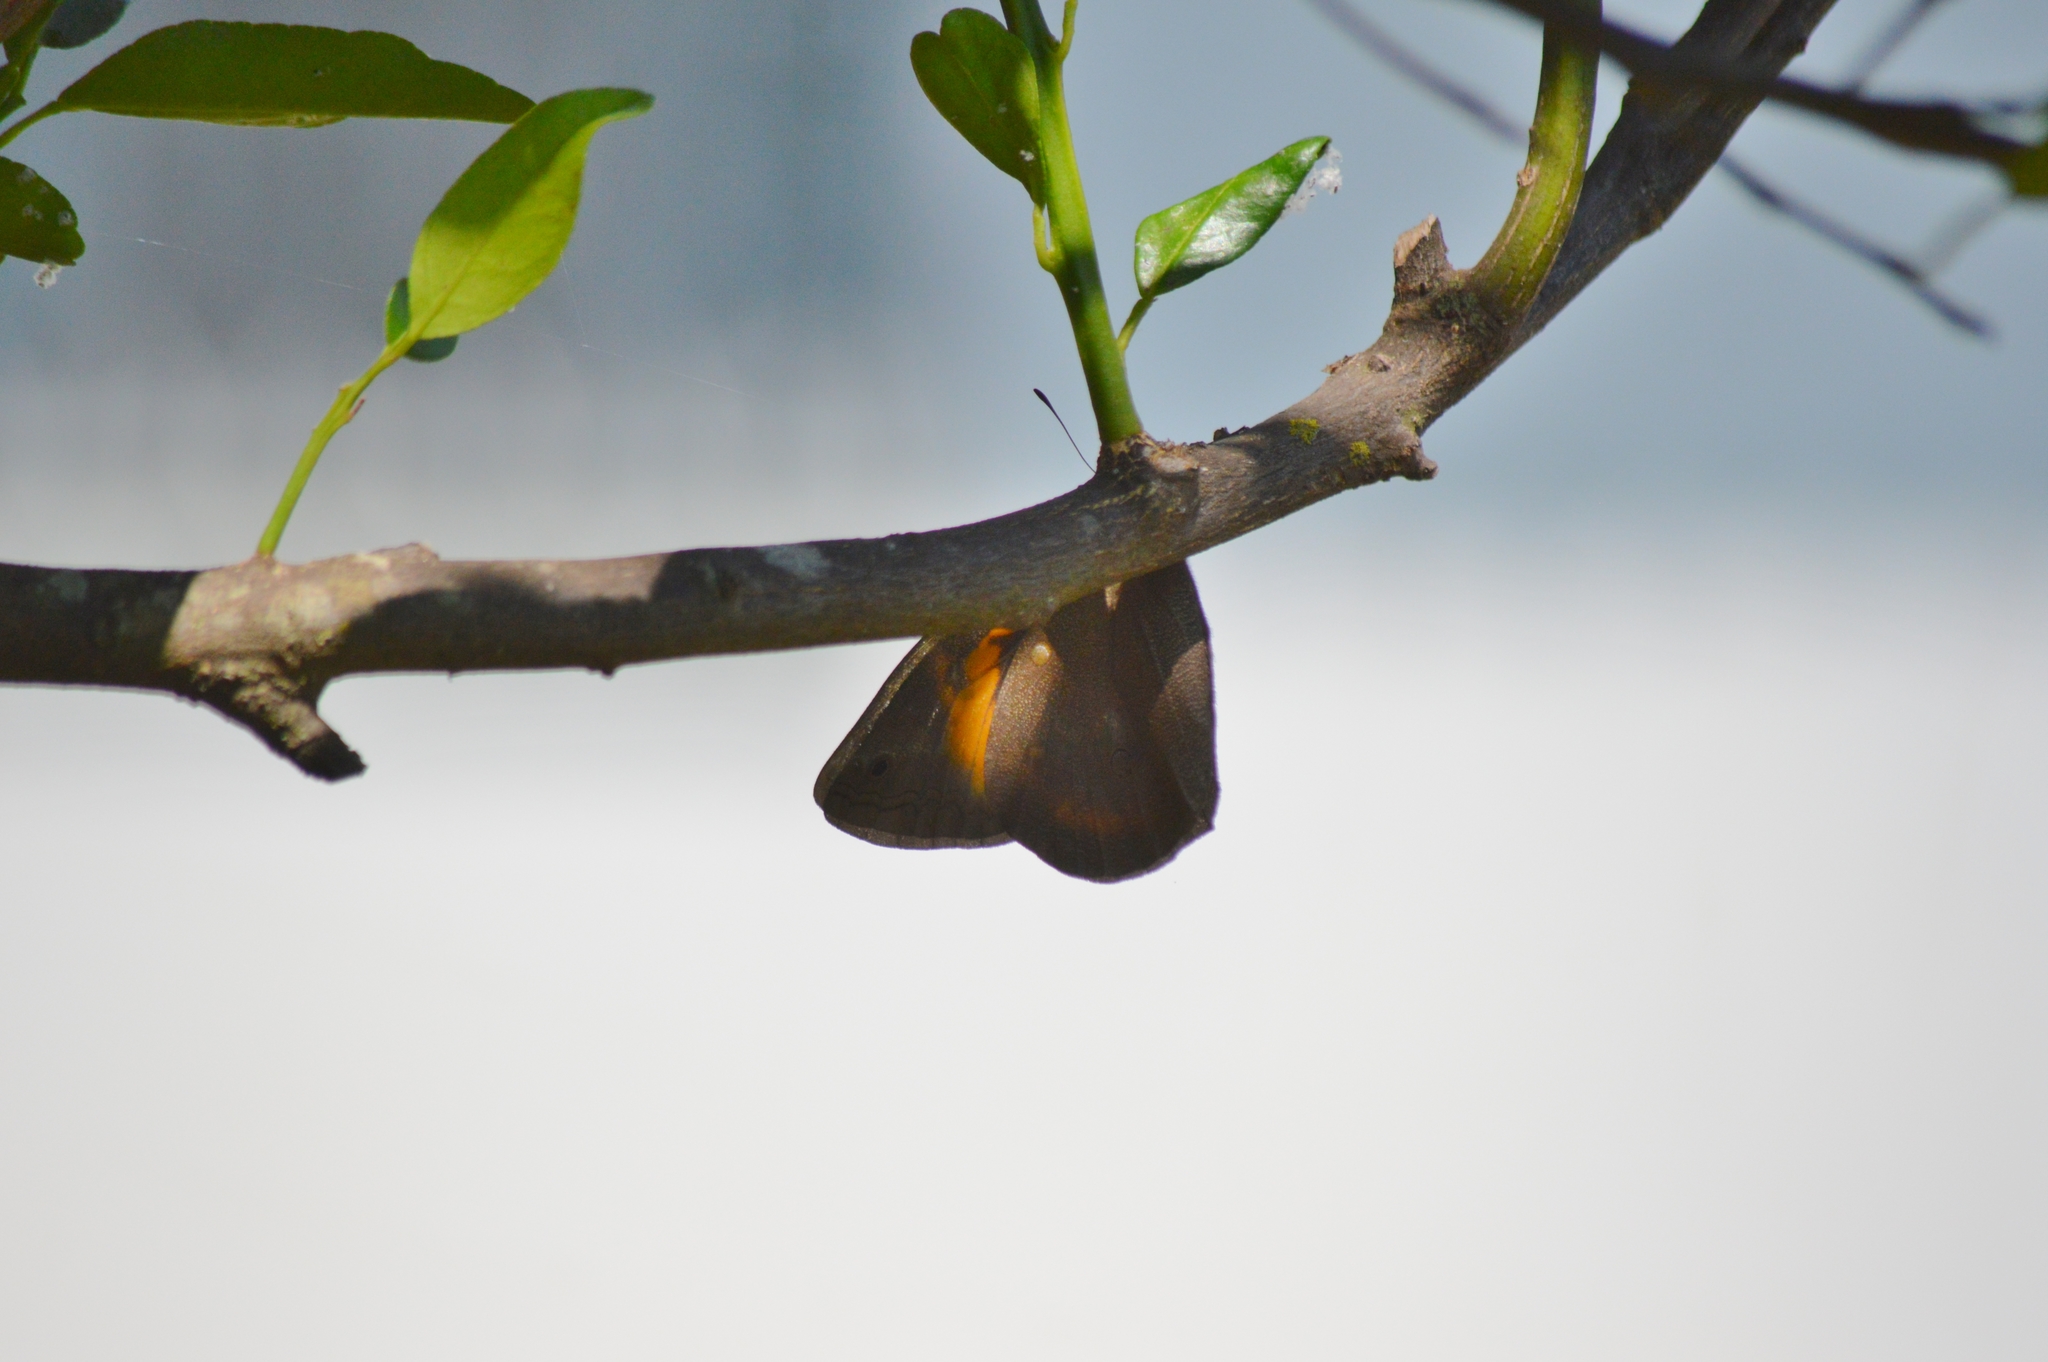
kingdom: Animalia
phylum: Arthropoda
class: Insecta
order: Lepidoptera
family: Nymphalidae
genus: Brassolis
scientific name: Brassolis sophorae
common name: Coconut caterpillar
